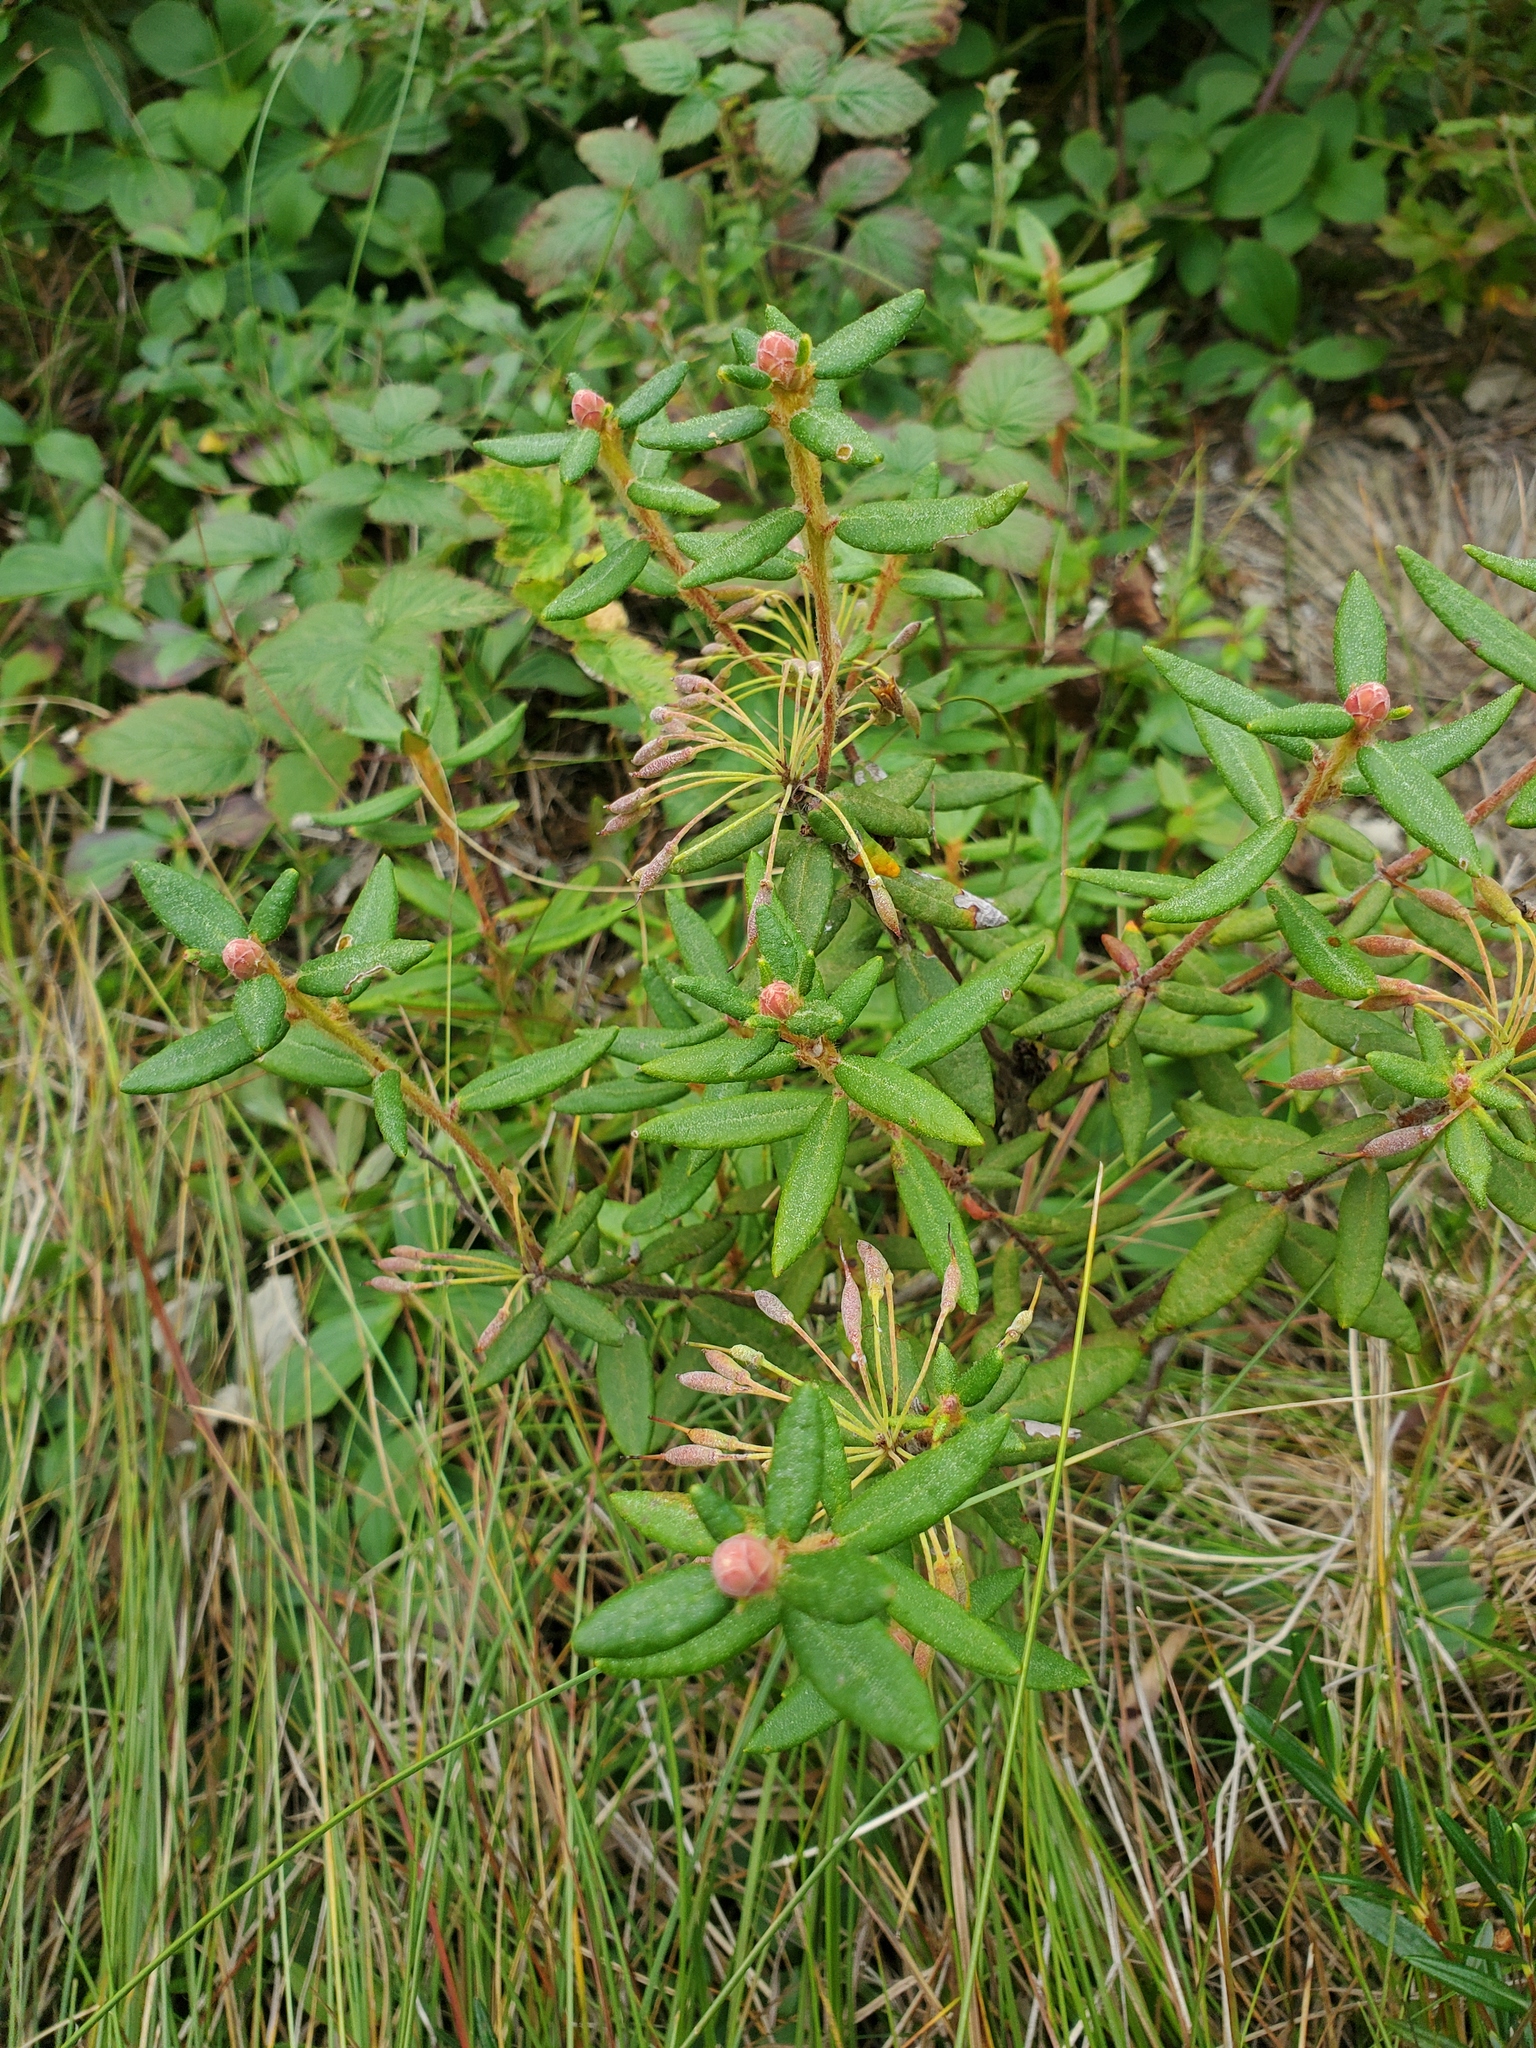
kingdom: Plantae
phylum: Tracheophyta
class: Magnoliopsida
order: Ericales
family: Ericaceae
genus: Rhododendron
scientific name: Rhododendron groenlandicum
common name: Bog labrador tea
